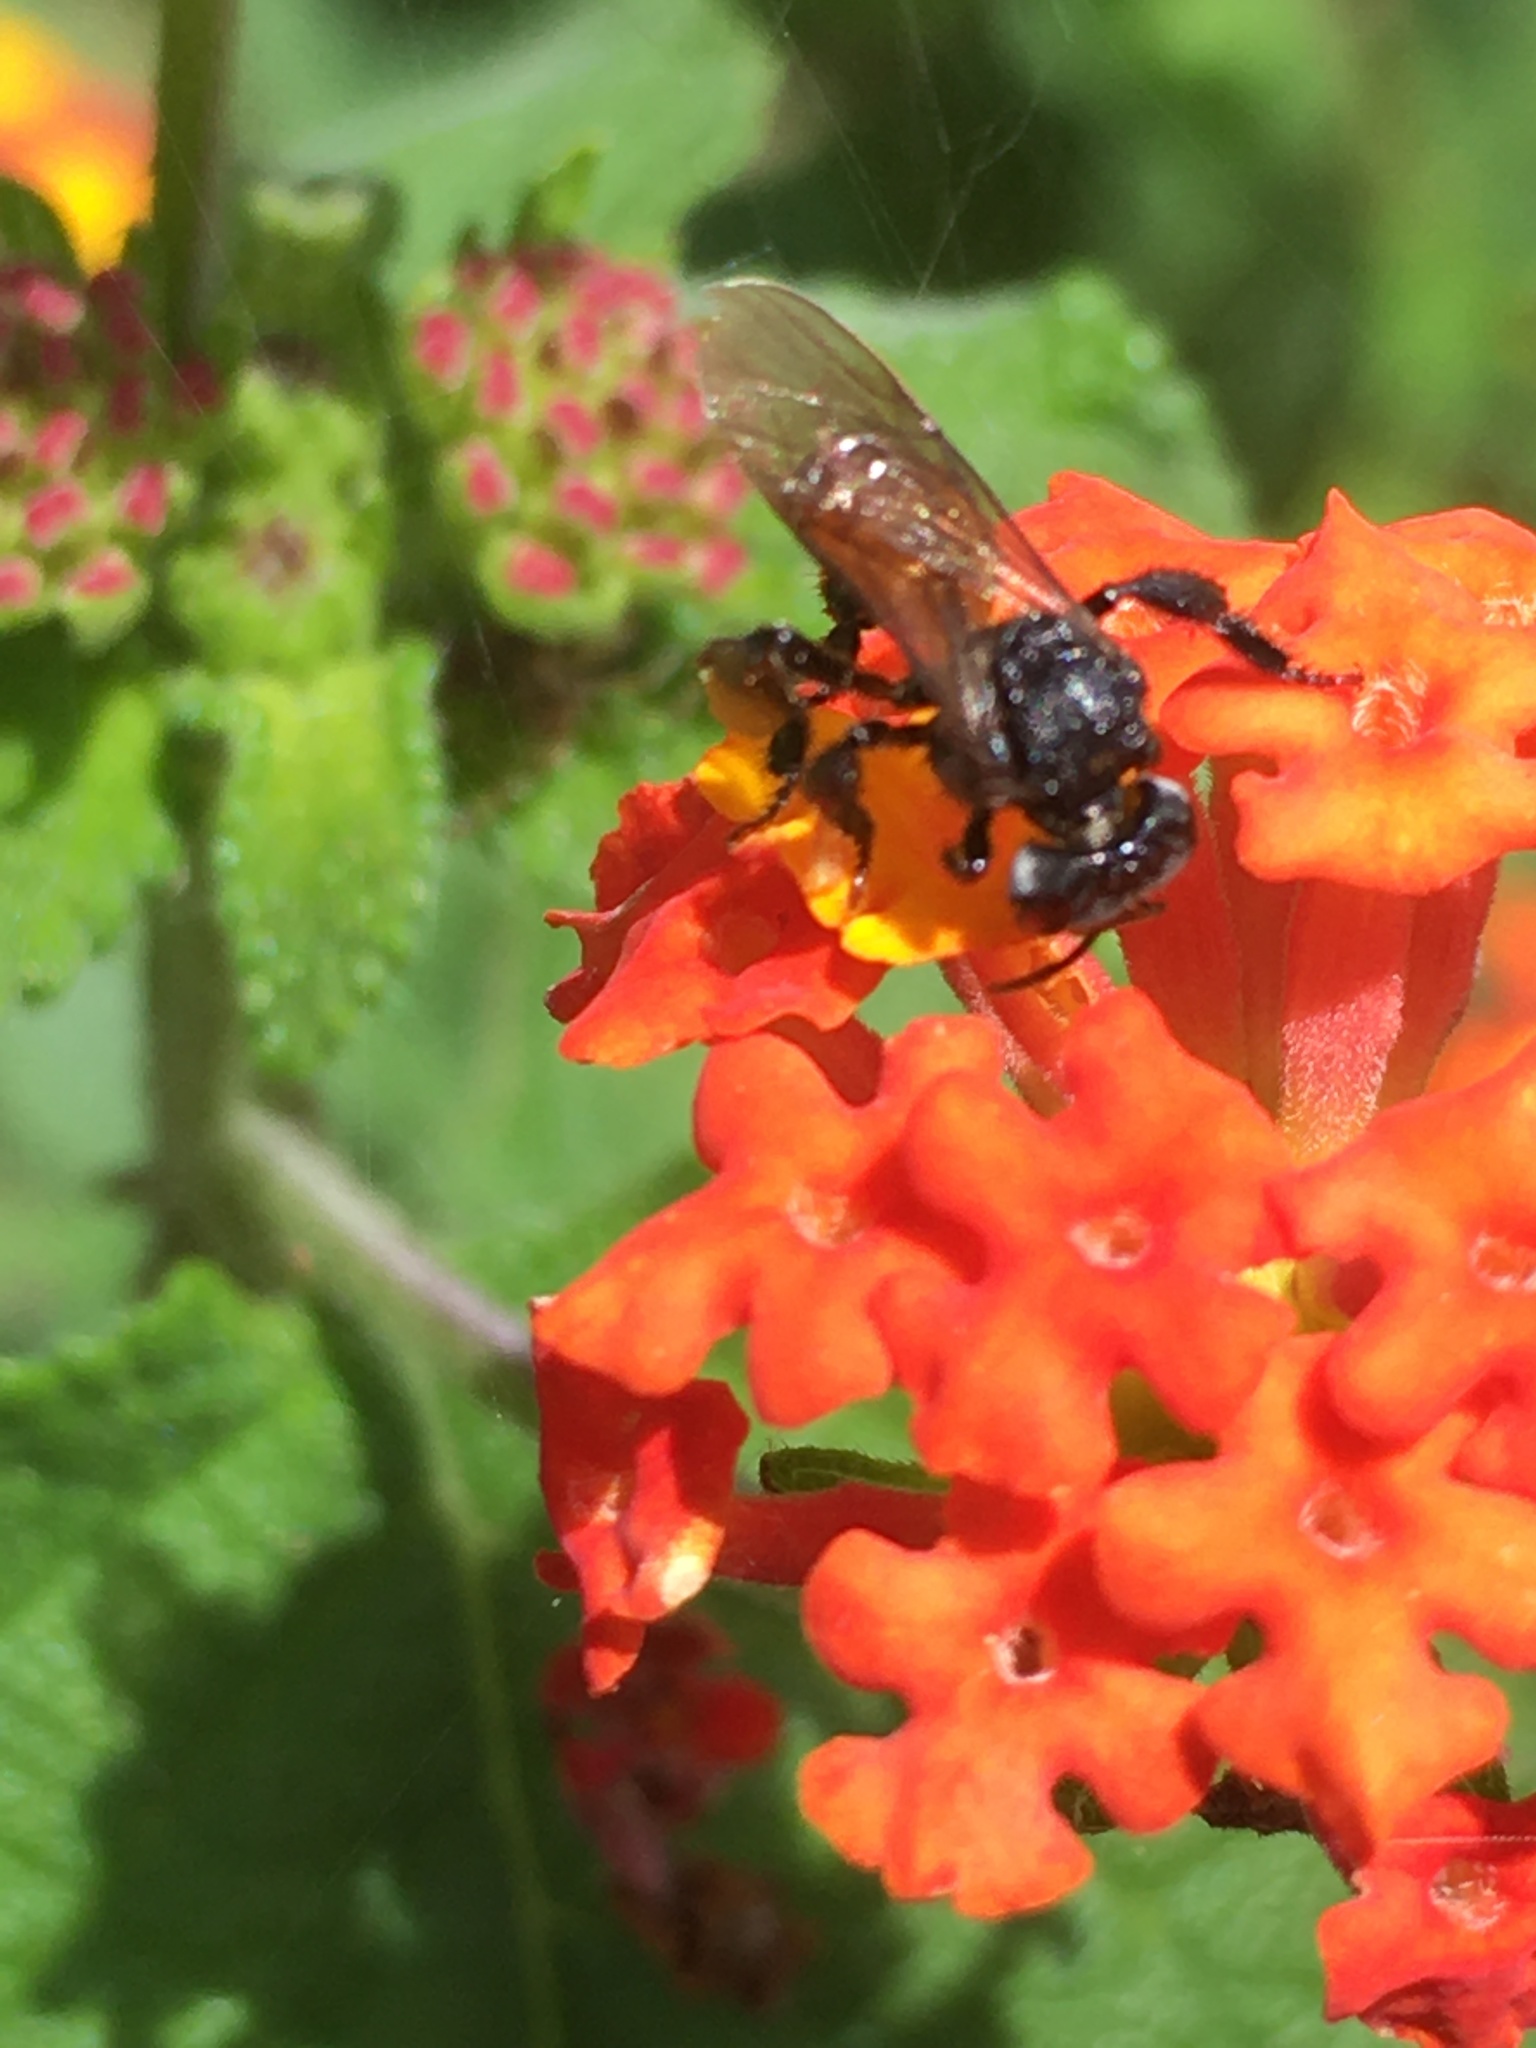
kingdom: Animalia
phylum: Arthropoda
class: Insecta
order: Hymenoptera
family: Apidae
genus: Trigona
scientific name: Trigona fulviventris
